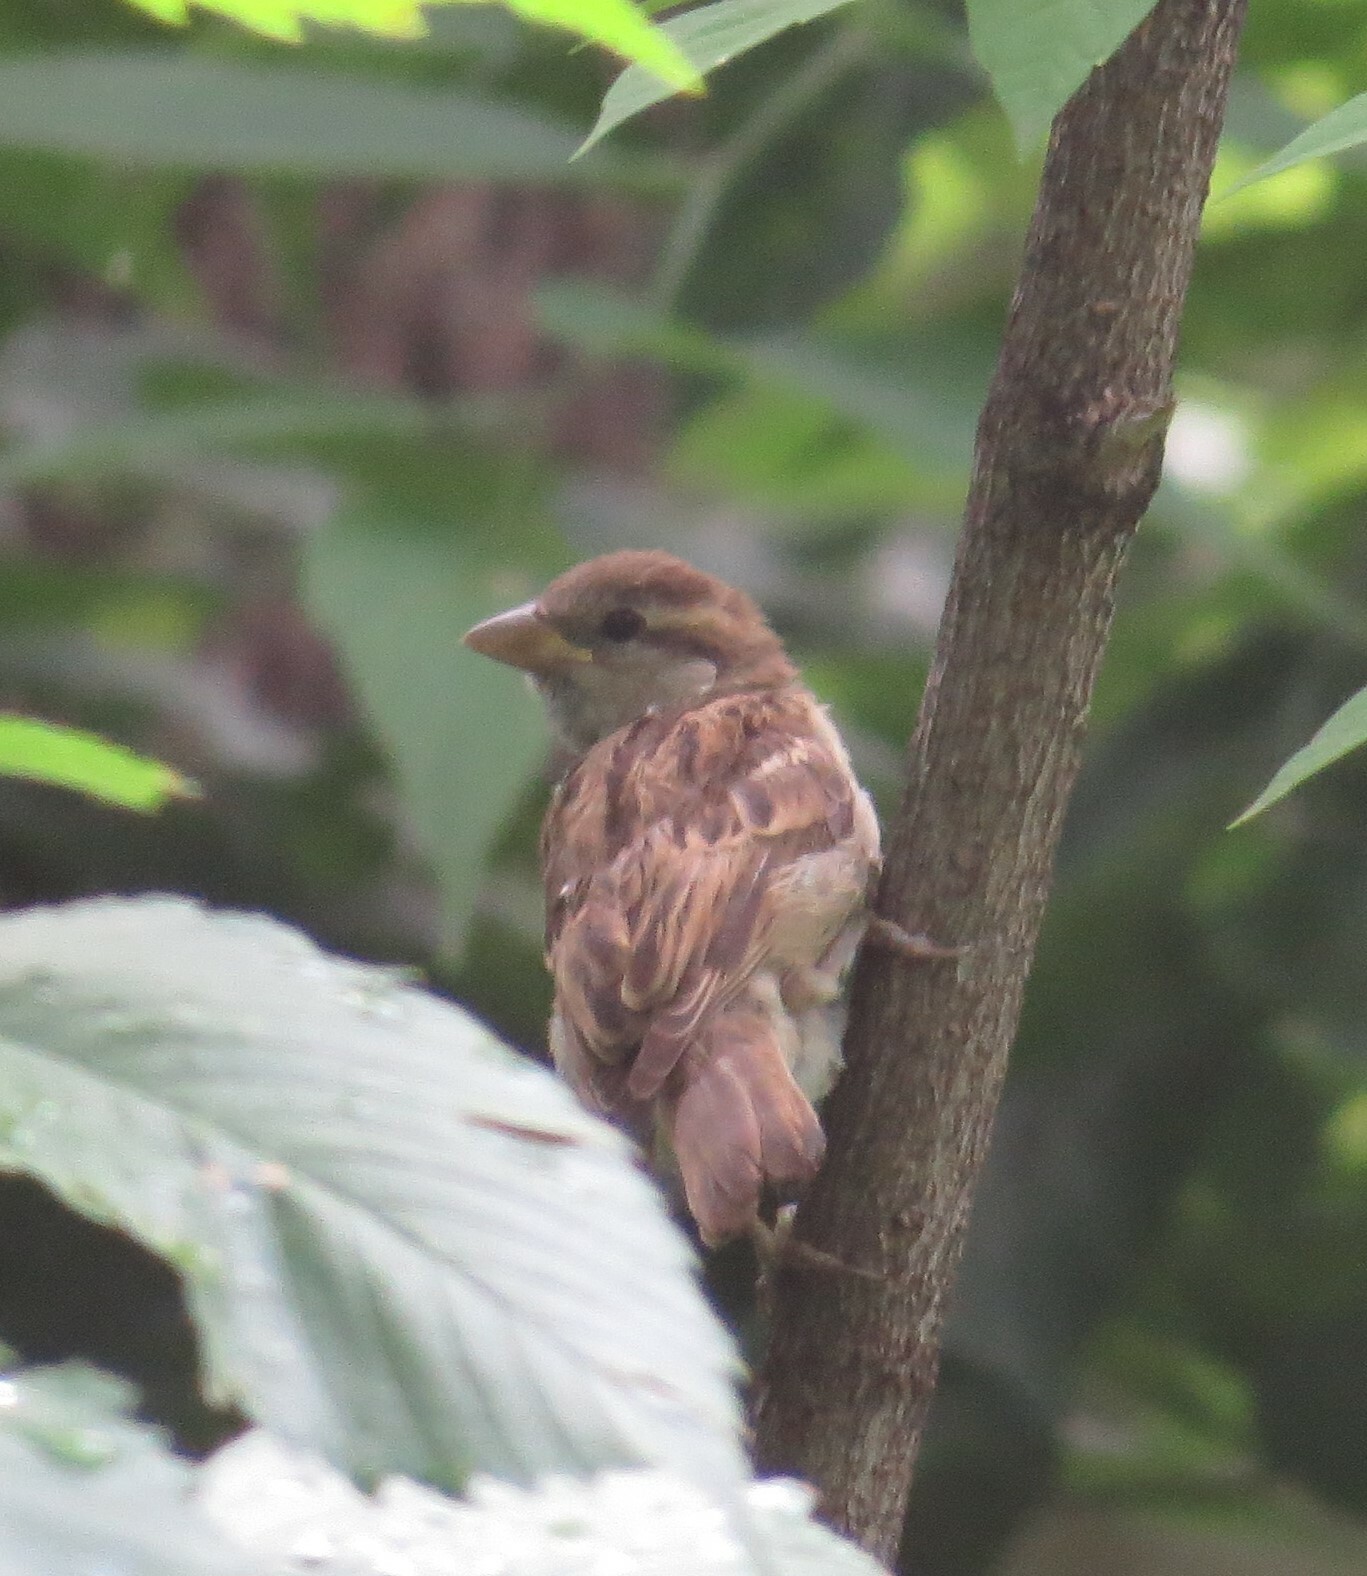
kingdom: Animalia
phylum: Chordata
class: Aves
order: Passeriformes
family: Passeridae
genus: Passer
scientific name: Passer domesticus
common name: House sparrow
